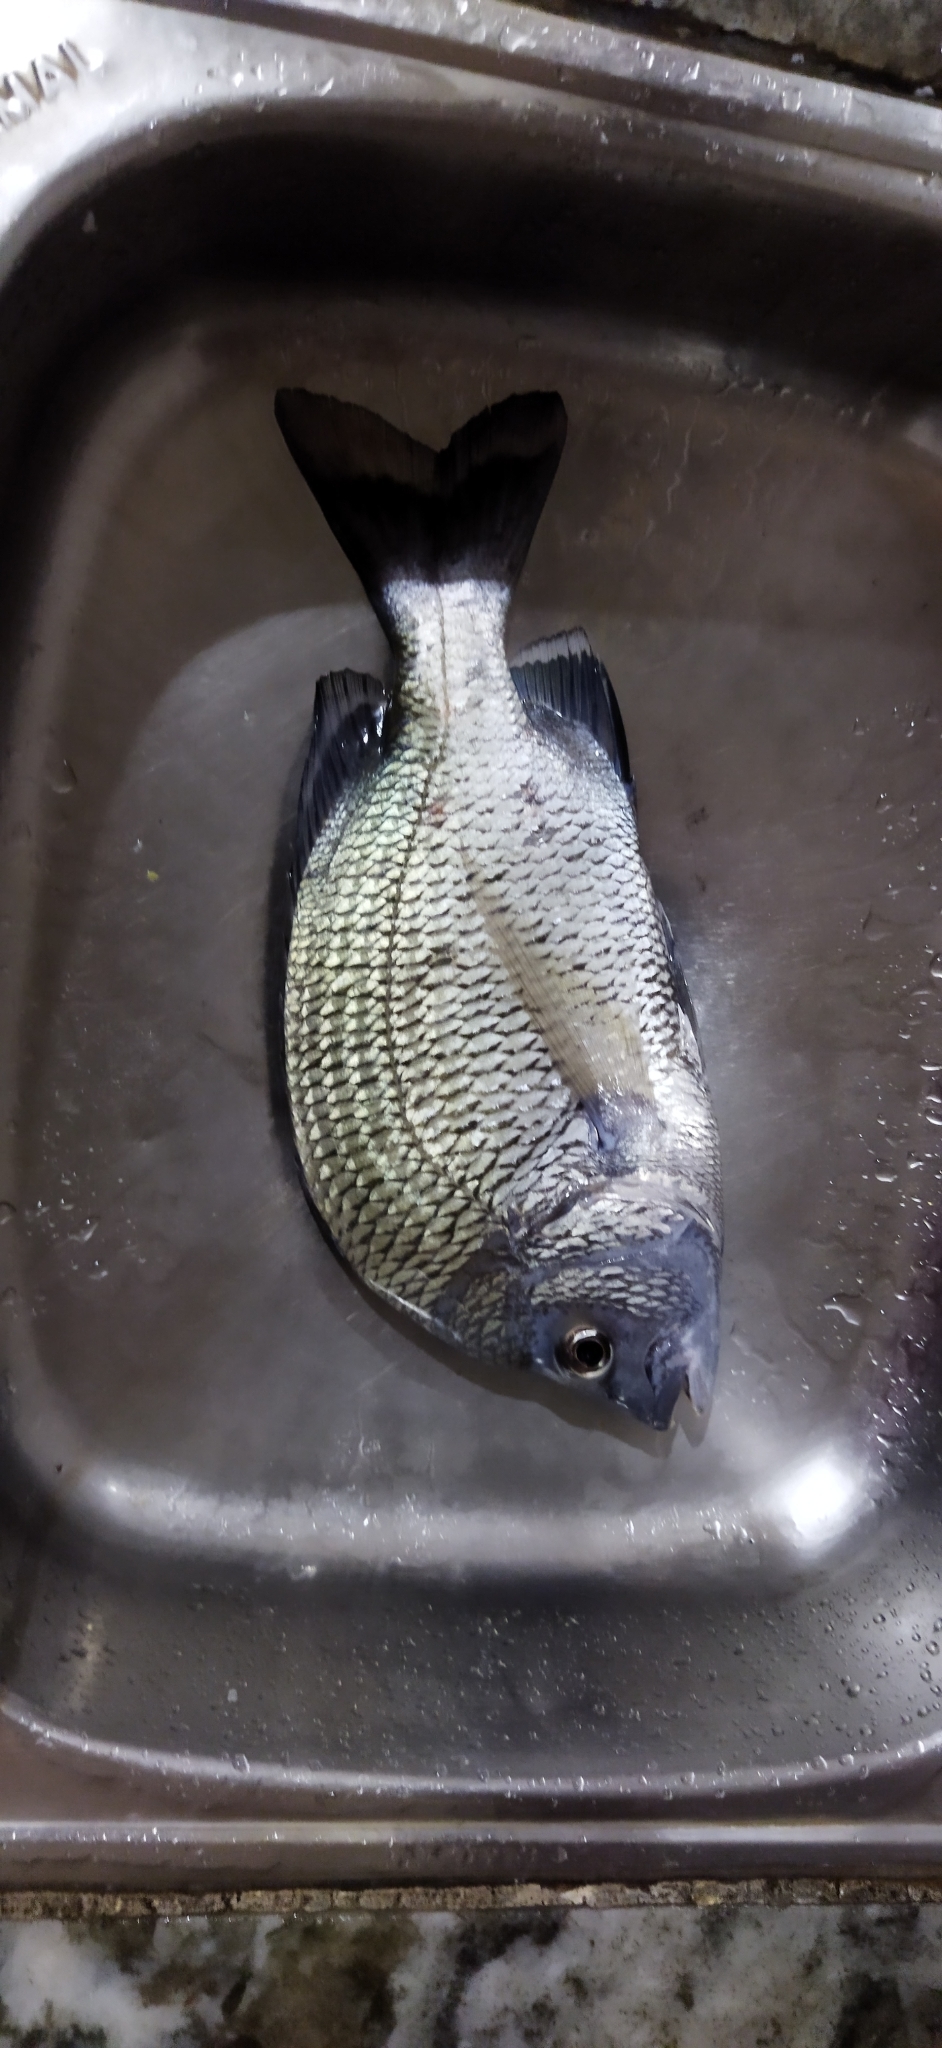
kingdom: Animalia
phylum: Chordata
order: Perciformes
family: Sparidae
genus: Acanthopagrus
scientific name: Acanthopagrus berda
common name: Picnic seabream
